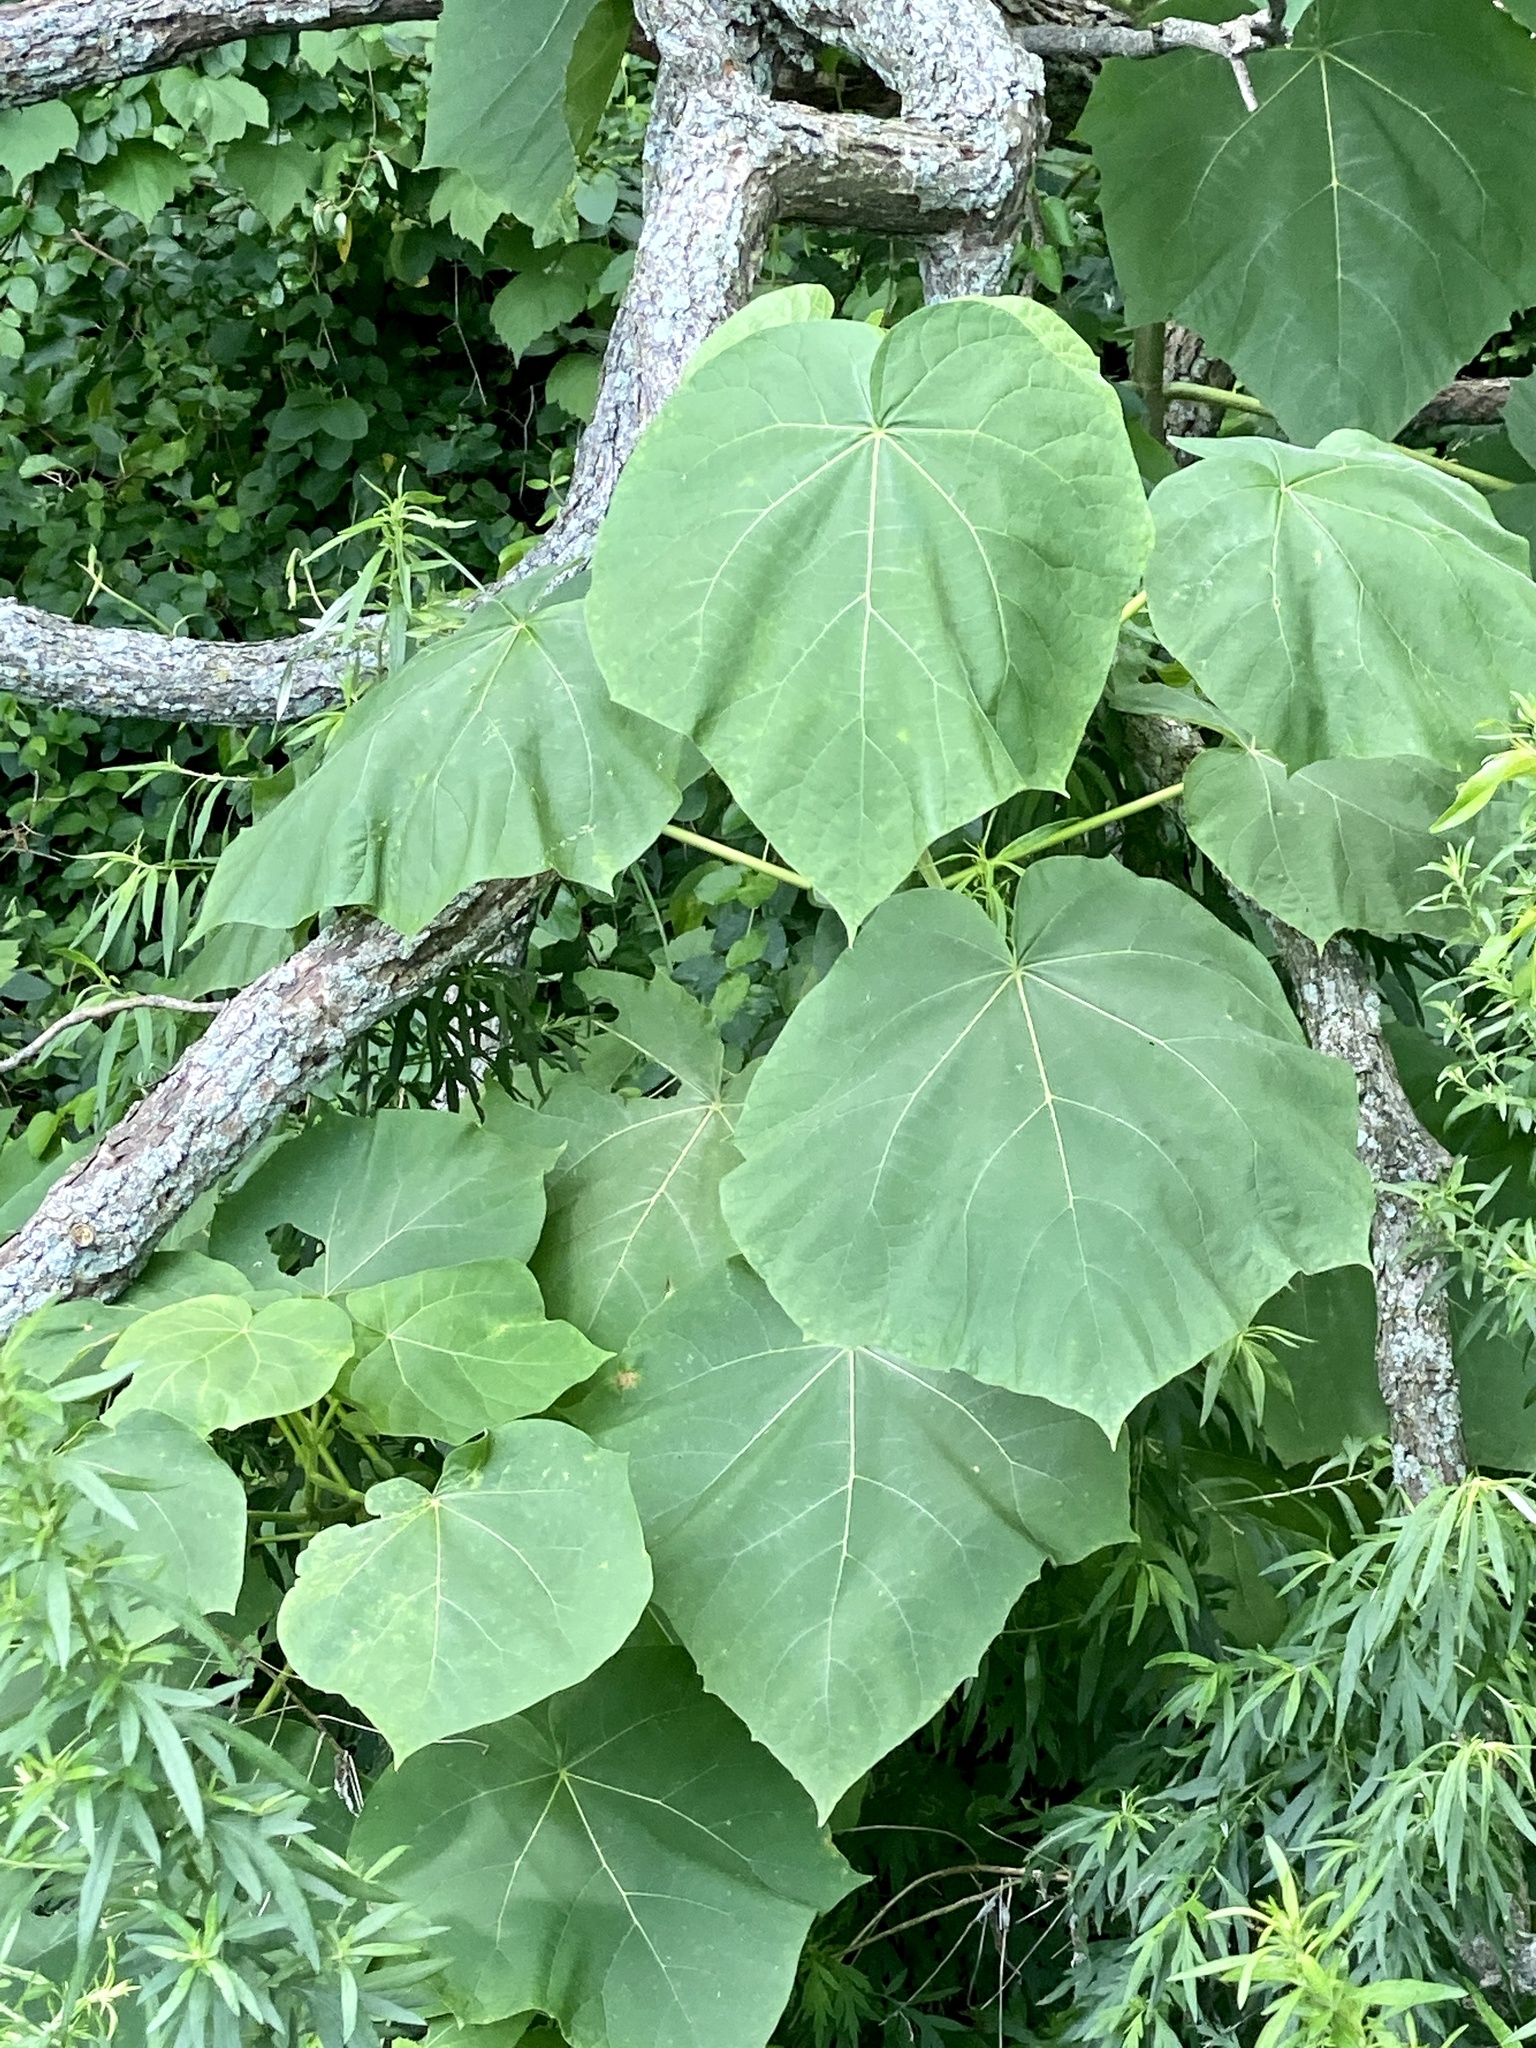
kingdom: Plantae
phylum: Tracheophyta
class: Magnoliopsida
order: Lamiales
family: Paulowniaceae
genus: Paulownia
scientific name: Paulownia tomentosa
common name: Foxglove-tree
